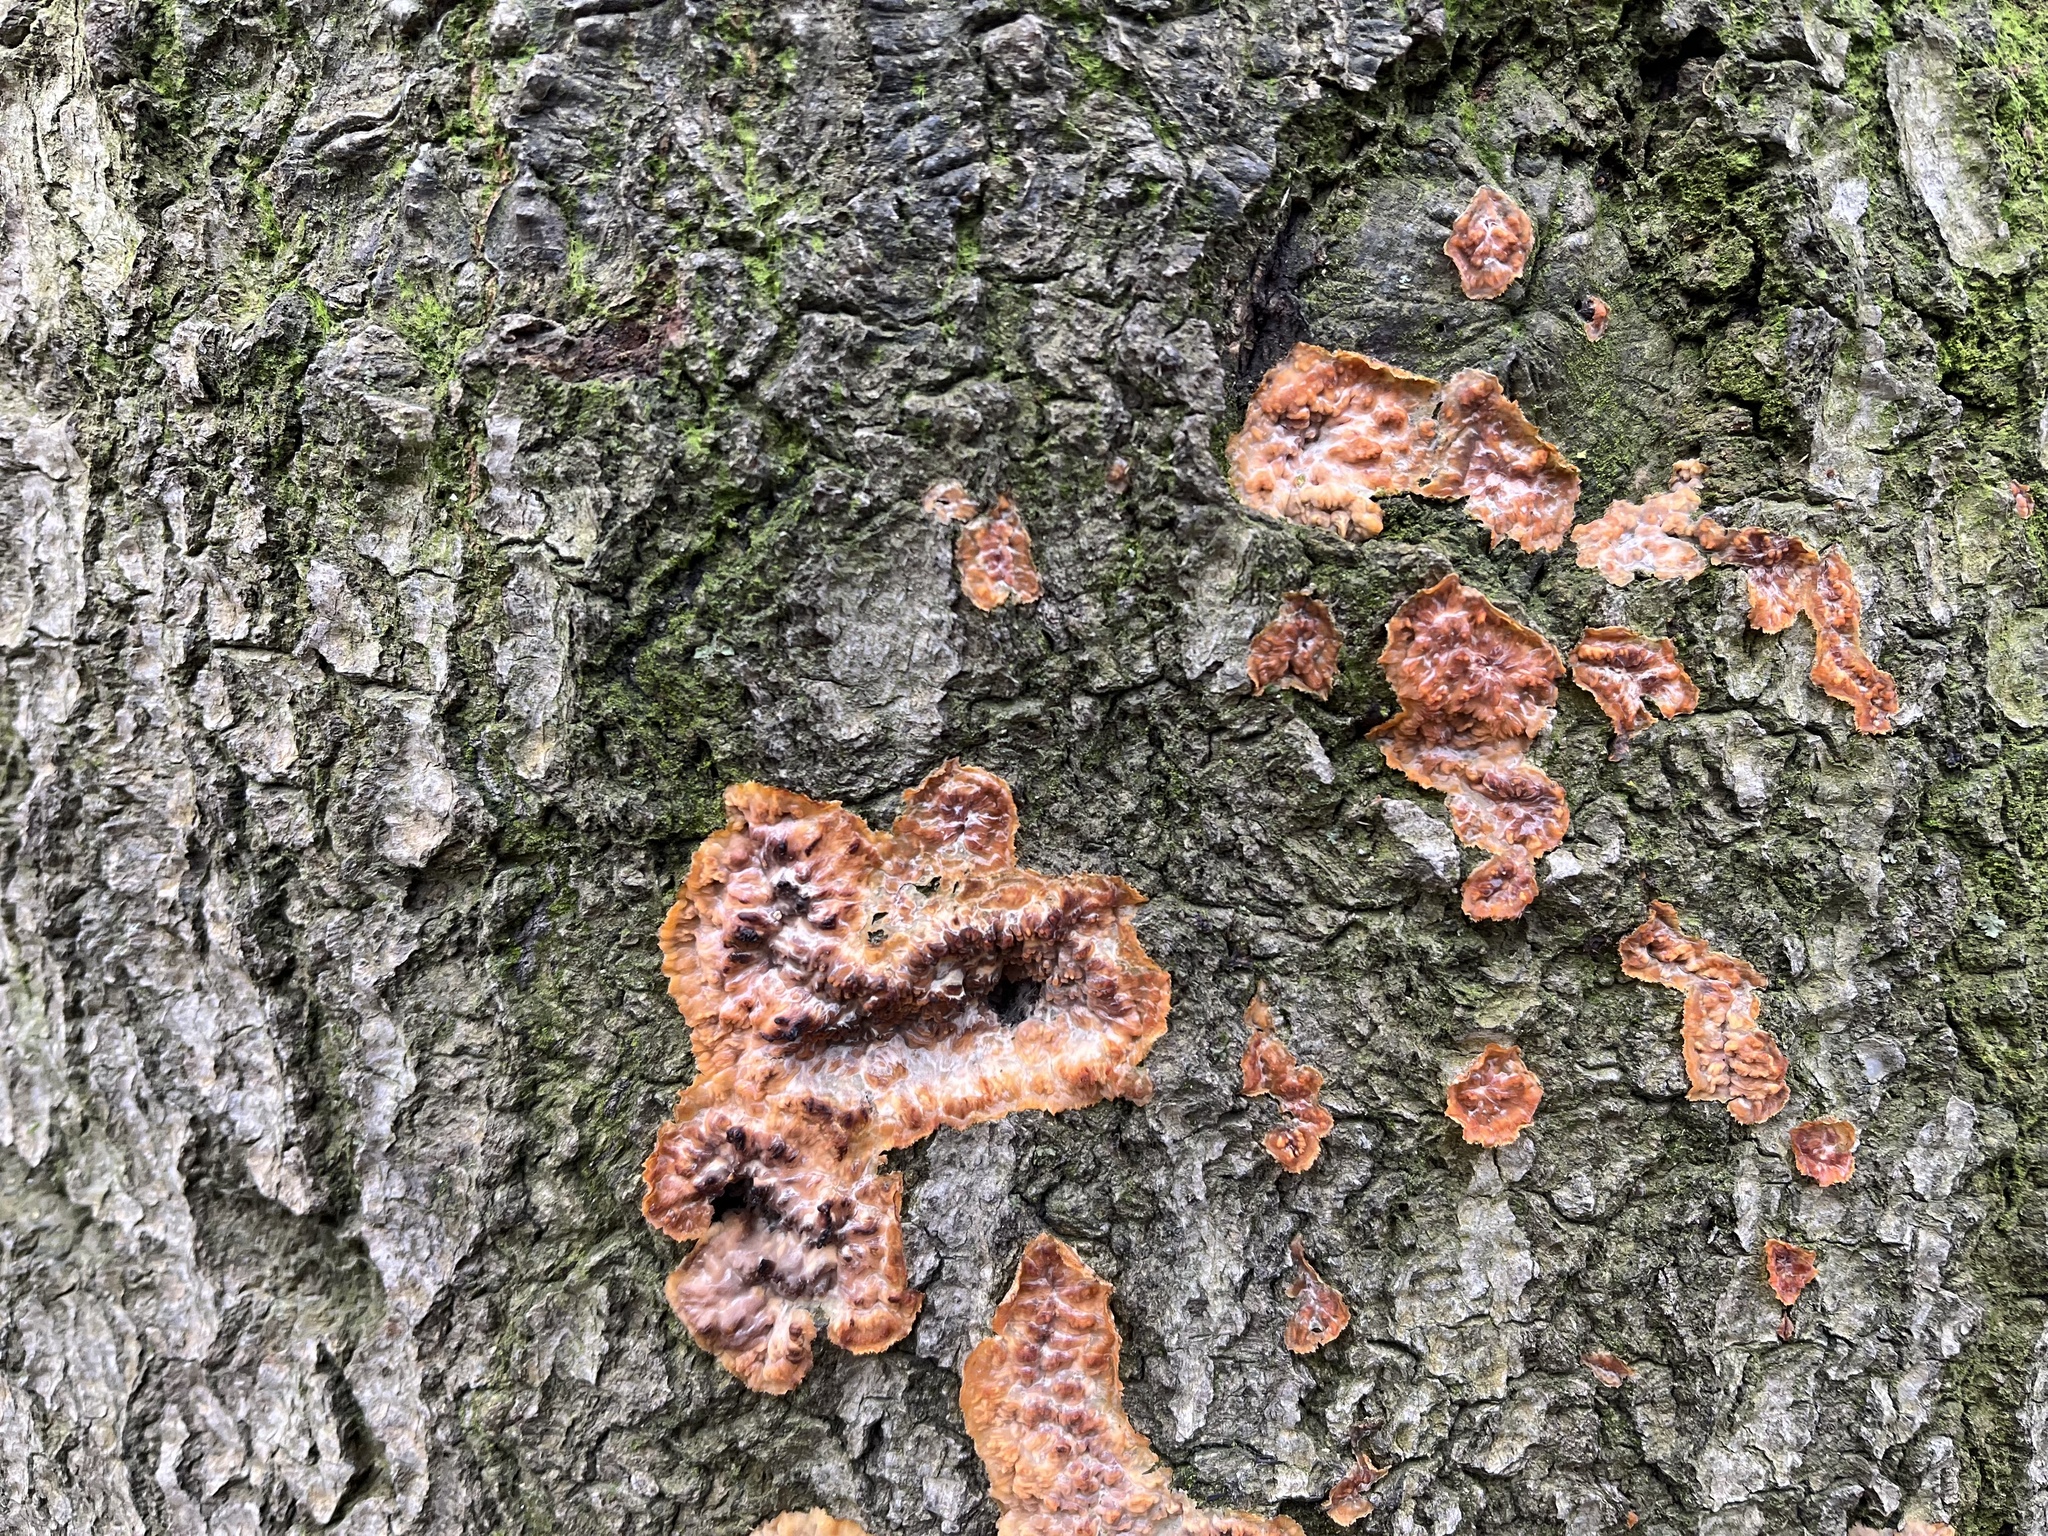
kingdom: Fungi
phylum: Basidiomycota
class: Agaricomycetes
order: Polyporales
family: Meruliaceae
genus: Phlebia
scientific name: Phlebia radiata
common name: Wrinkled crust
